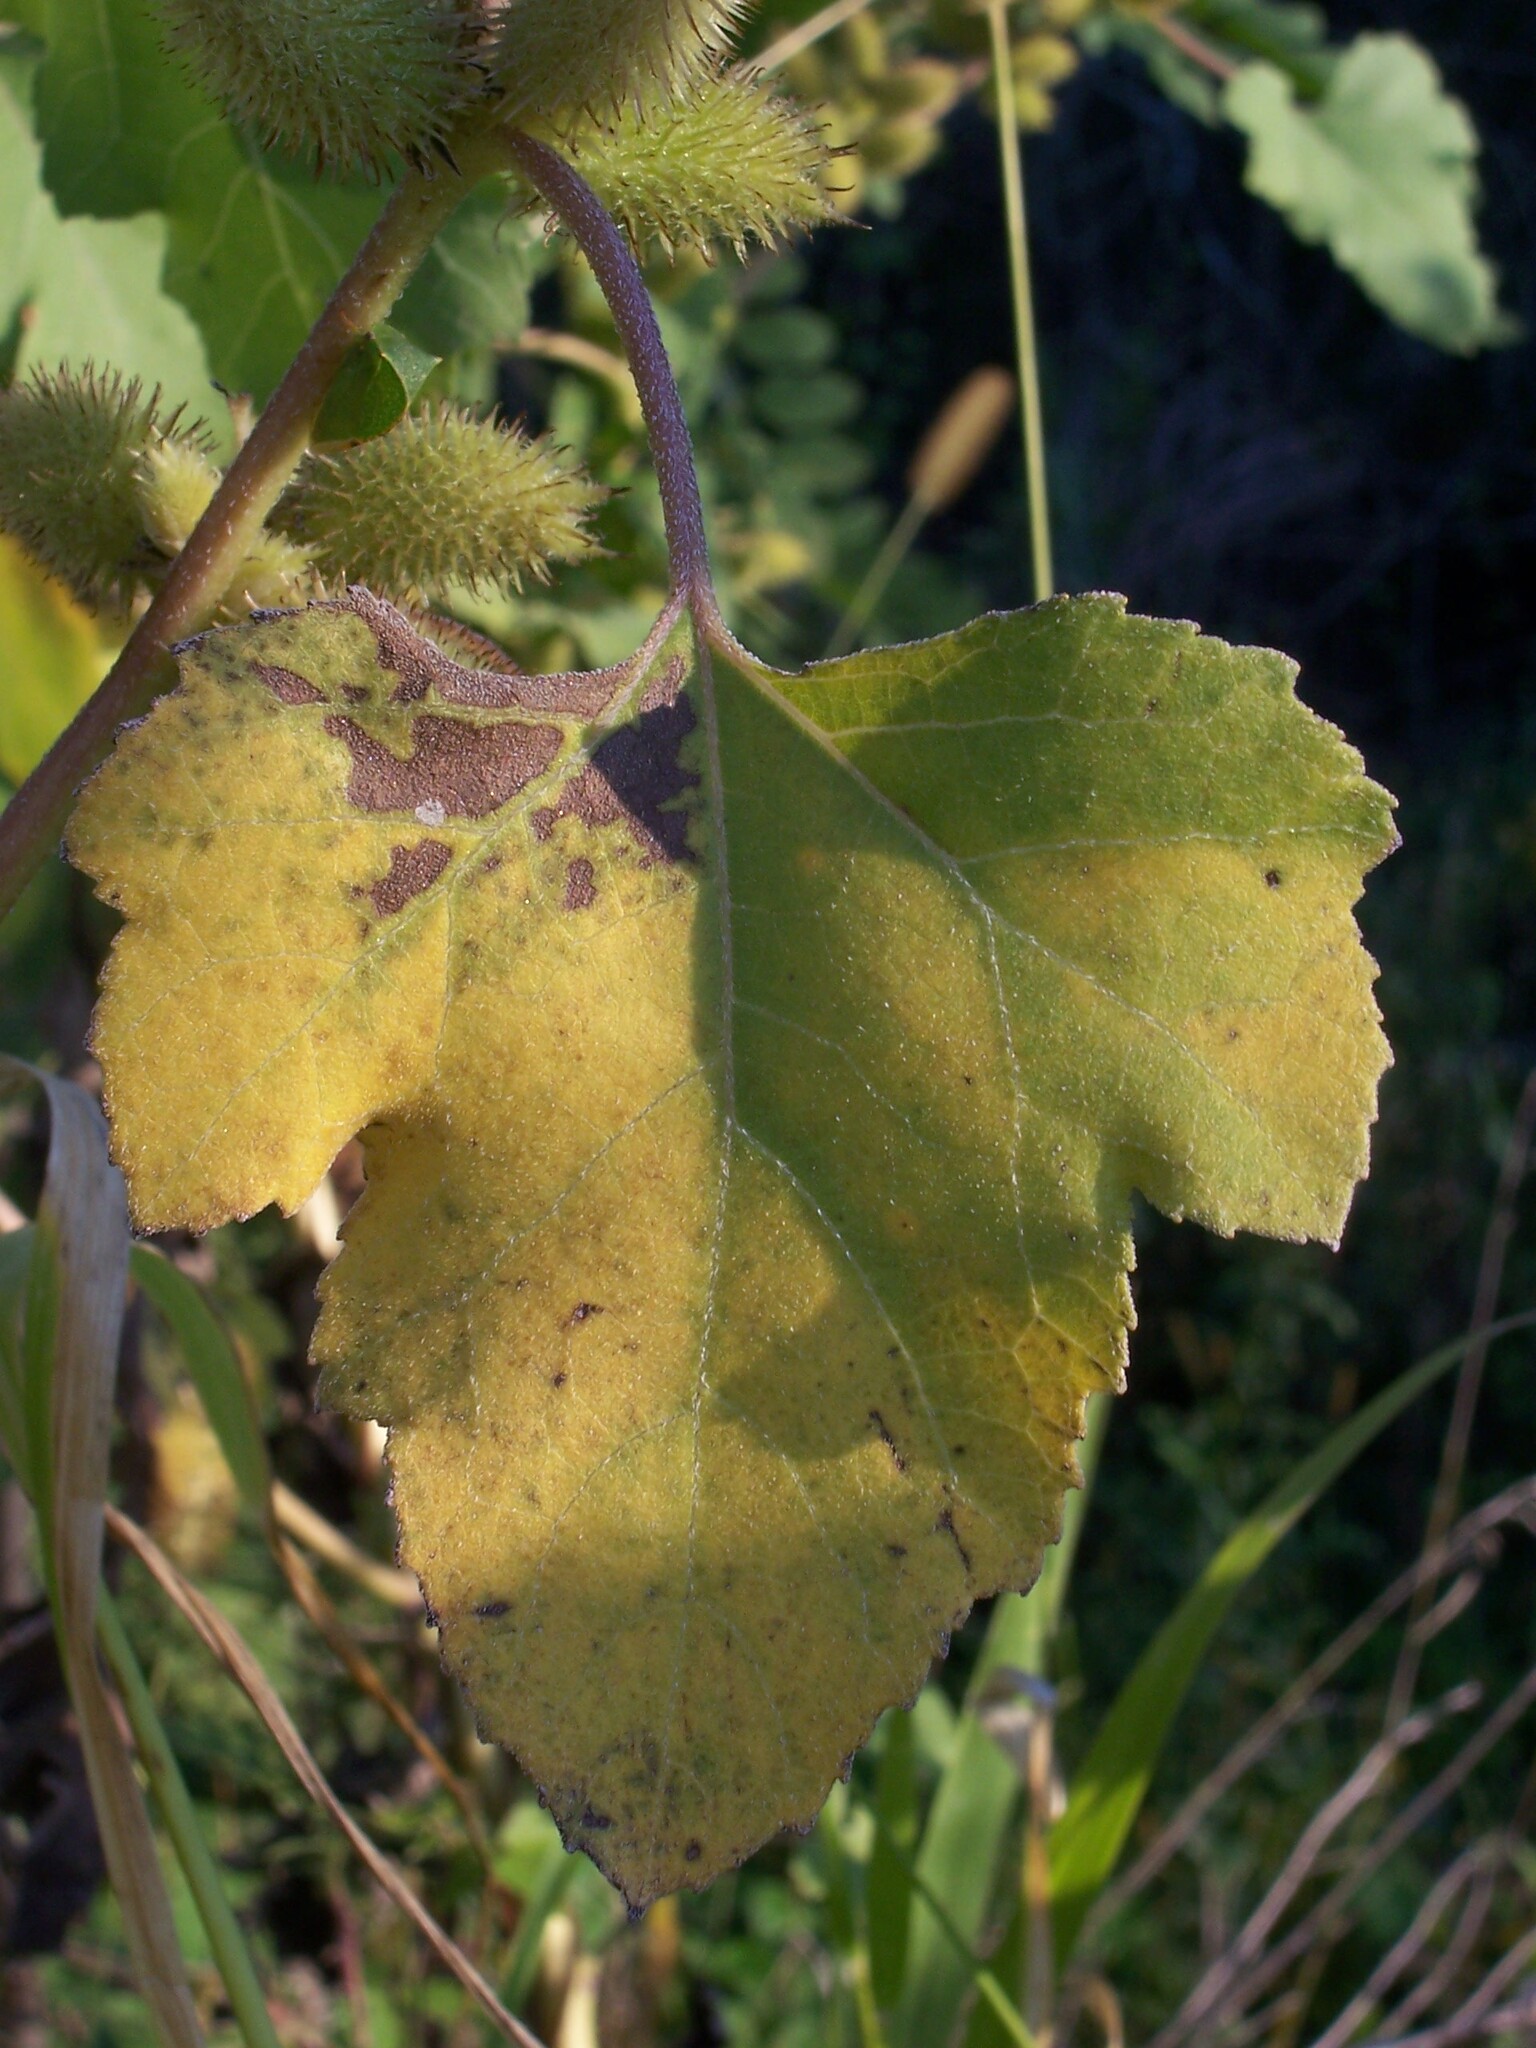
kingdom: Plantae
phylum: Tracheophyta
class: Magnoliopsida
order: Asterales
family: Asteraceae
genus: Xanthium
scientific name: Xanthium strumarium
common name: Rough cocklebur
